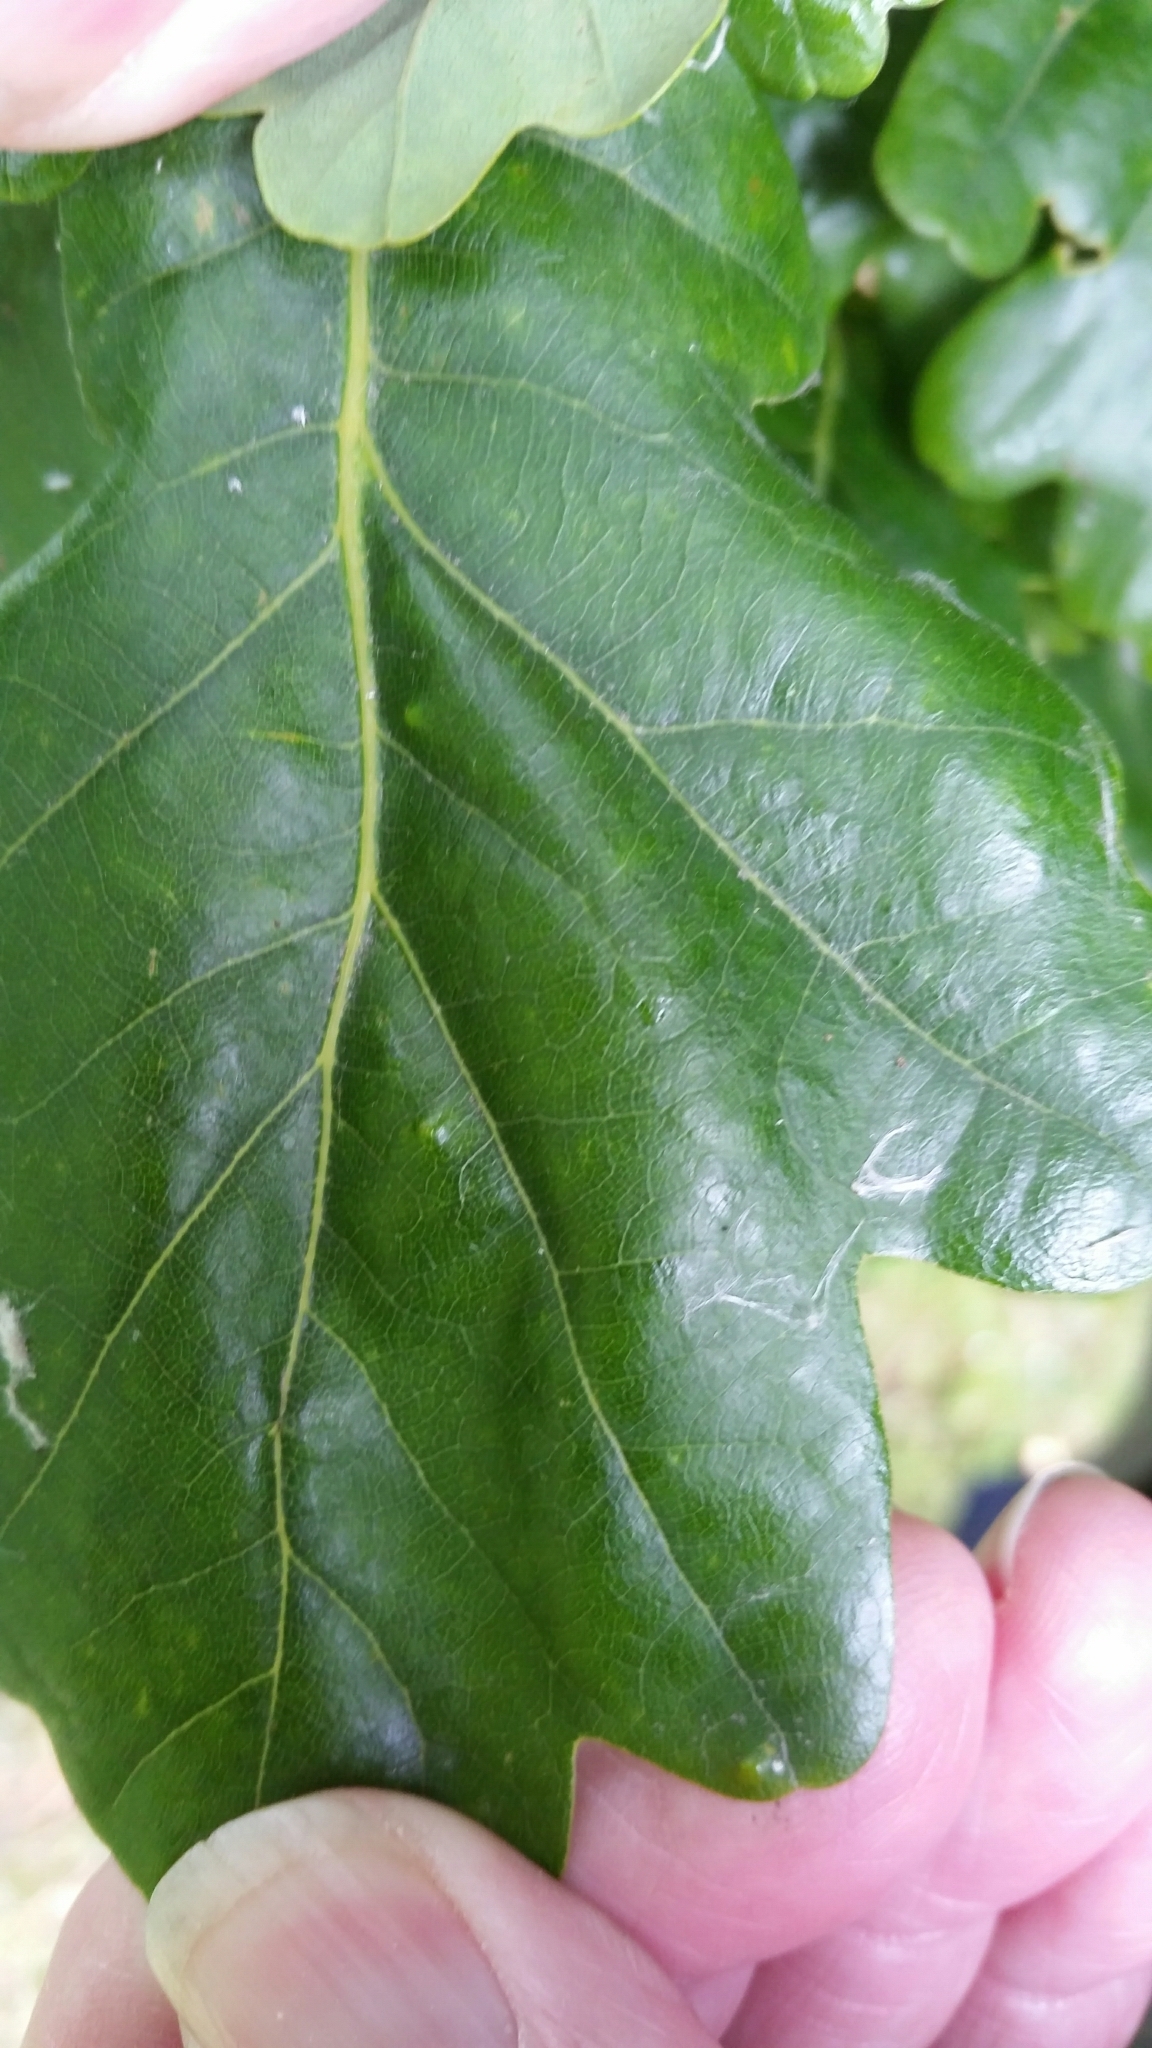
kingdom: Animalia
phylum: Arthropoda
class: Insecta
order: Hemiptera
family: Triozidae
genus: Trioza
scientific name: Trioza remota
